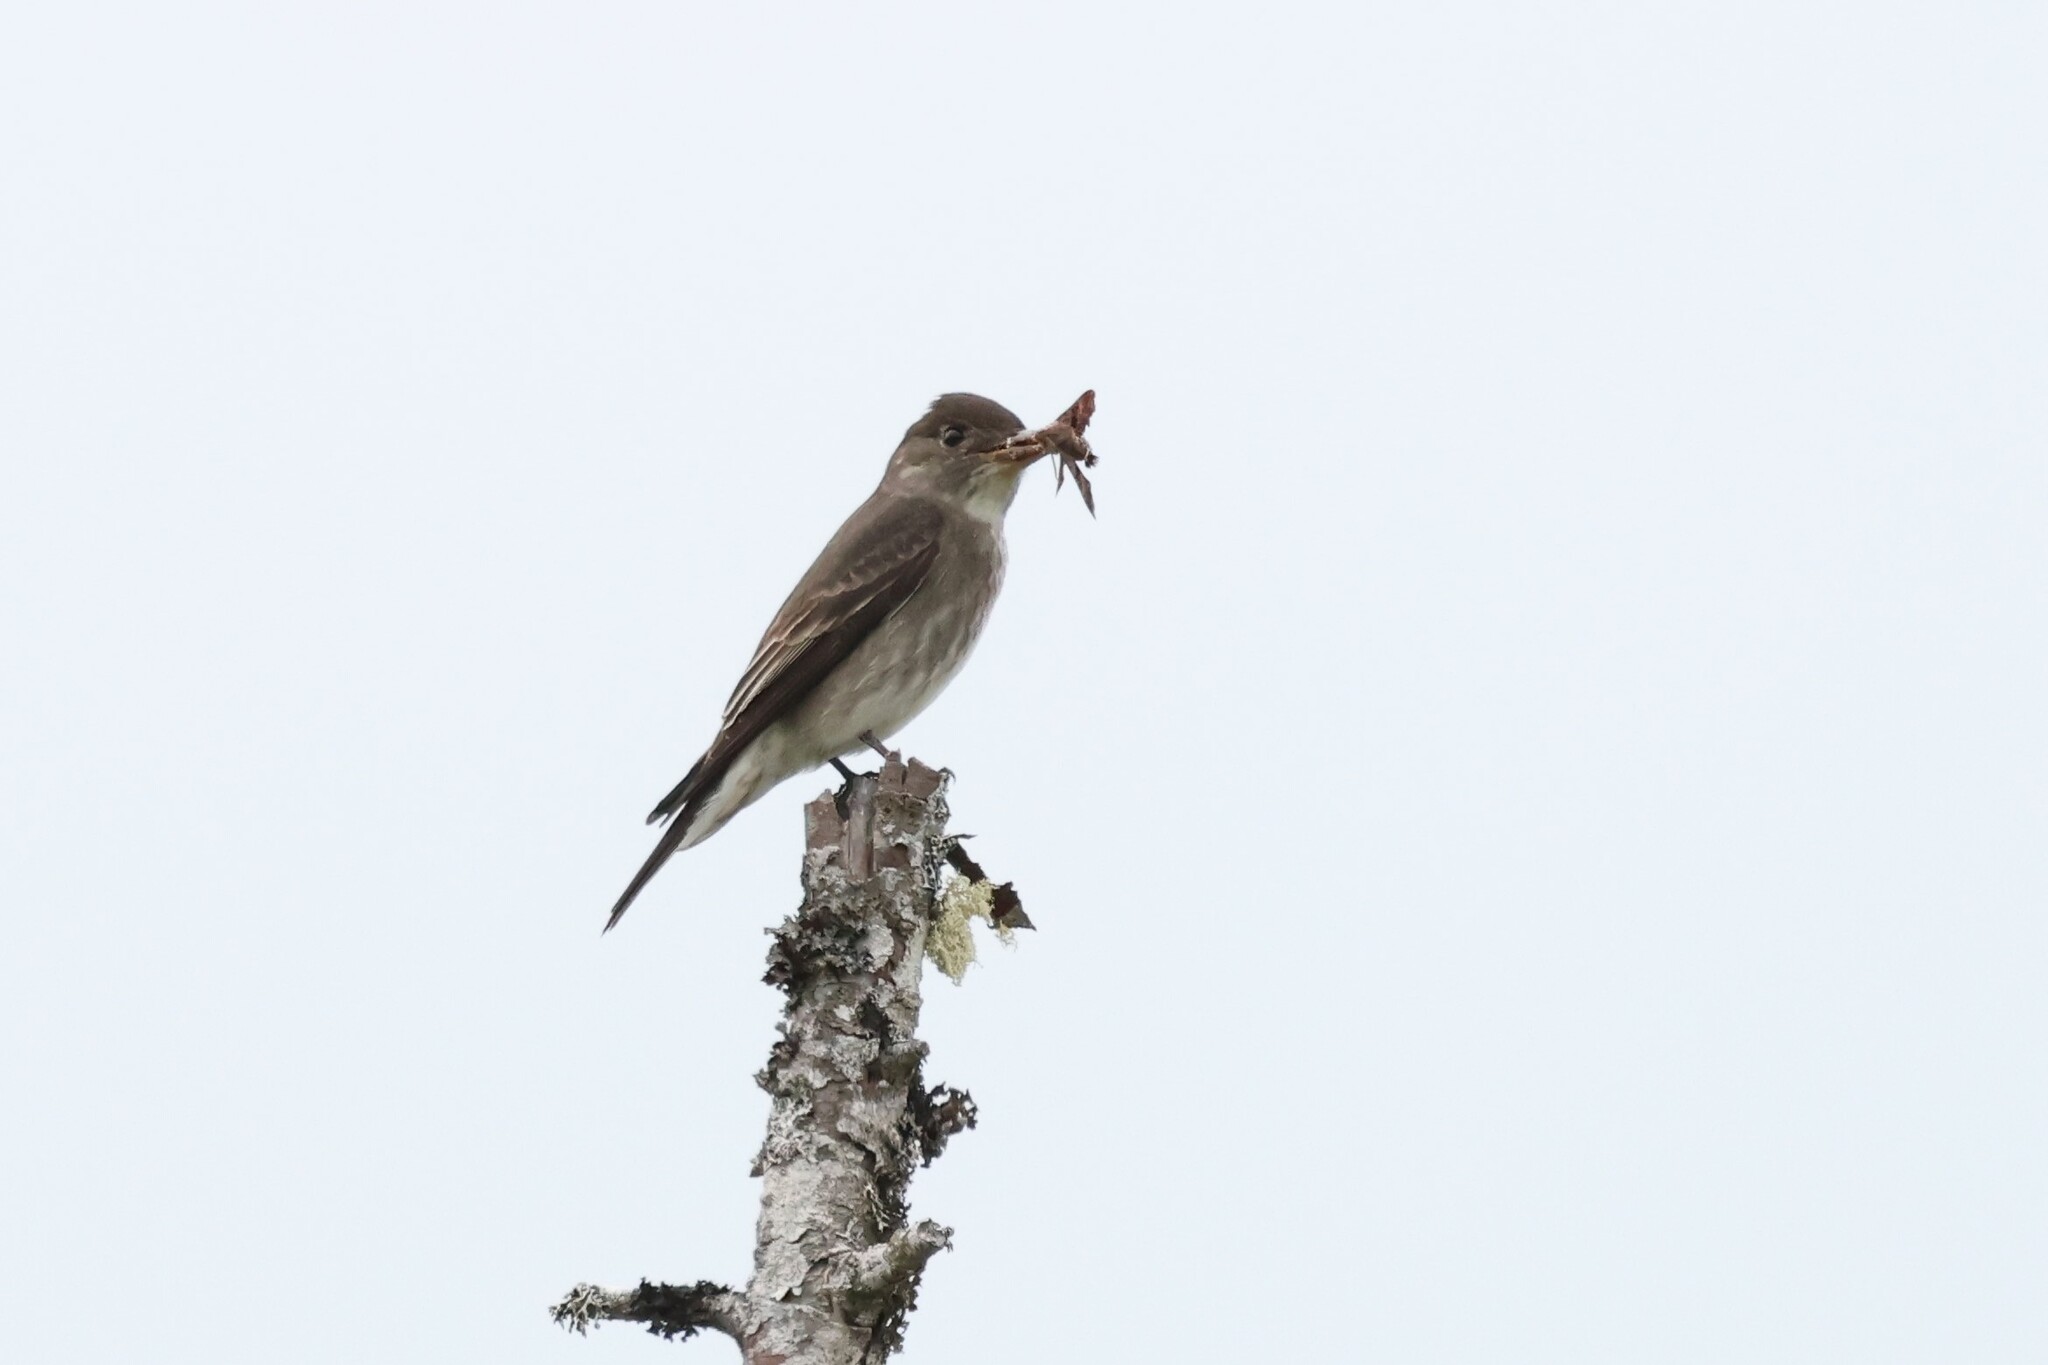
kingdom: Animalia
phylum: Chordata
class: Aves
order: Passeriformes
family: Tyrannidae
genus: Contopus
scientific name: Contopus cooperi
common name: Olive-sided flycatcher
